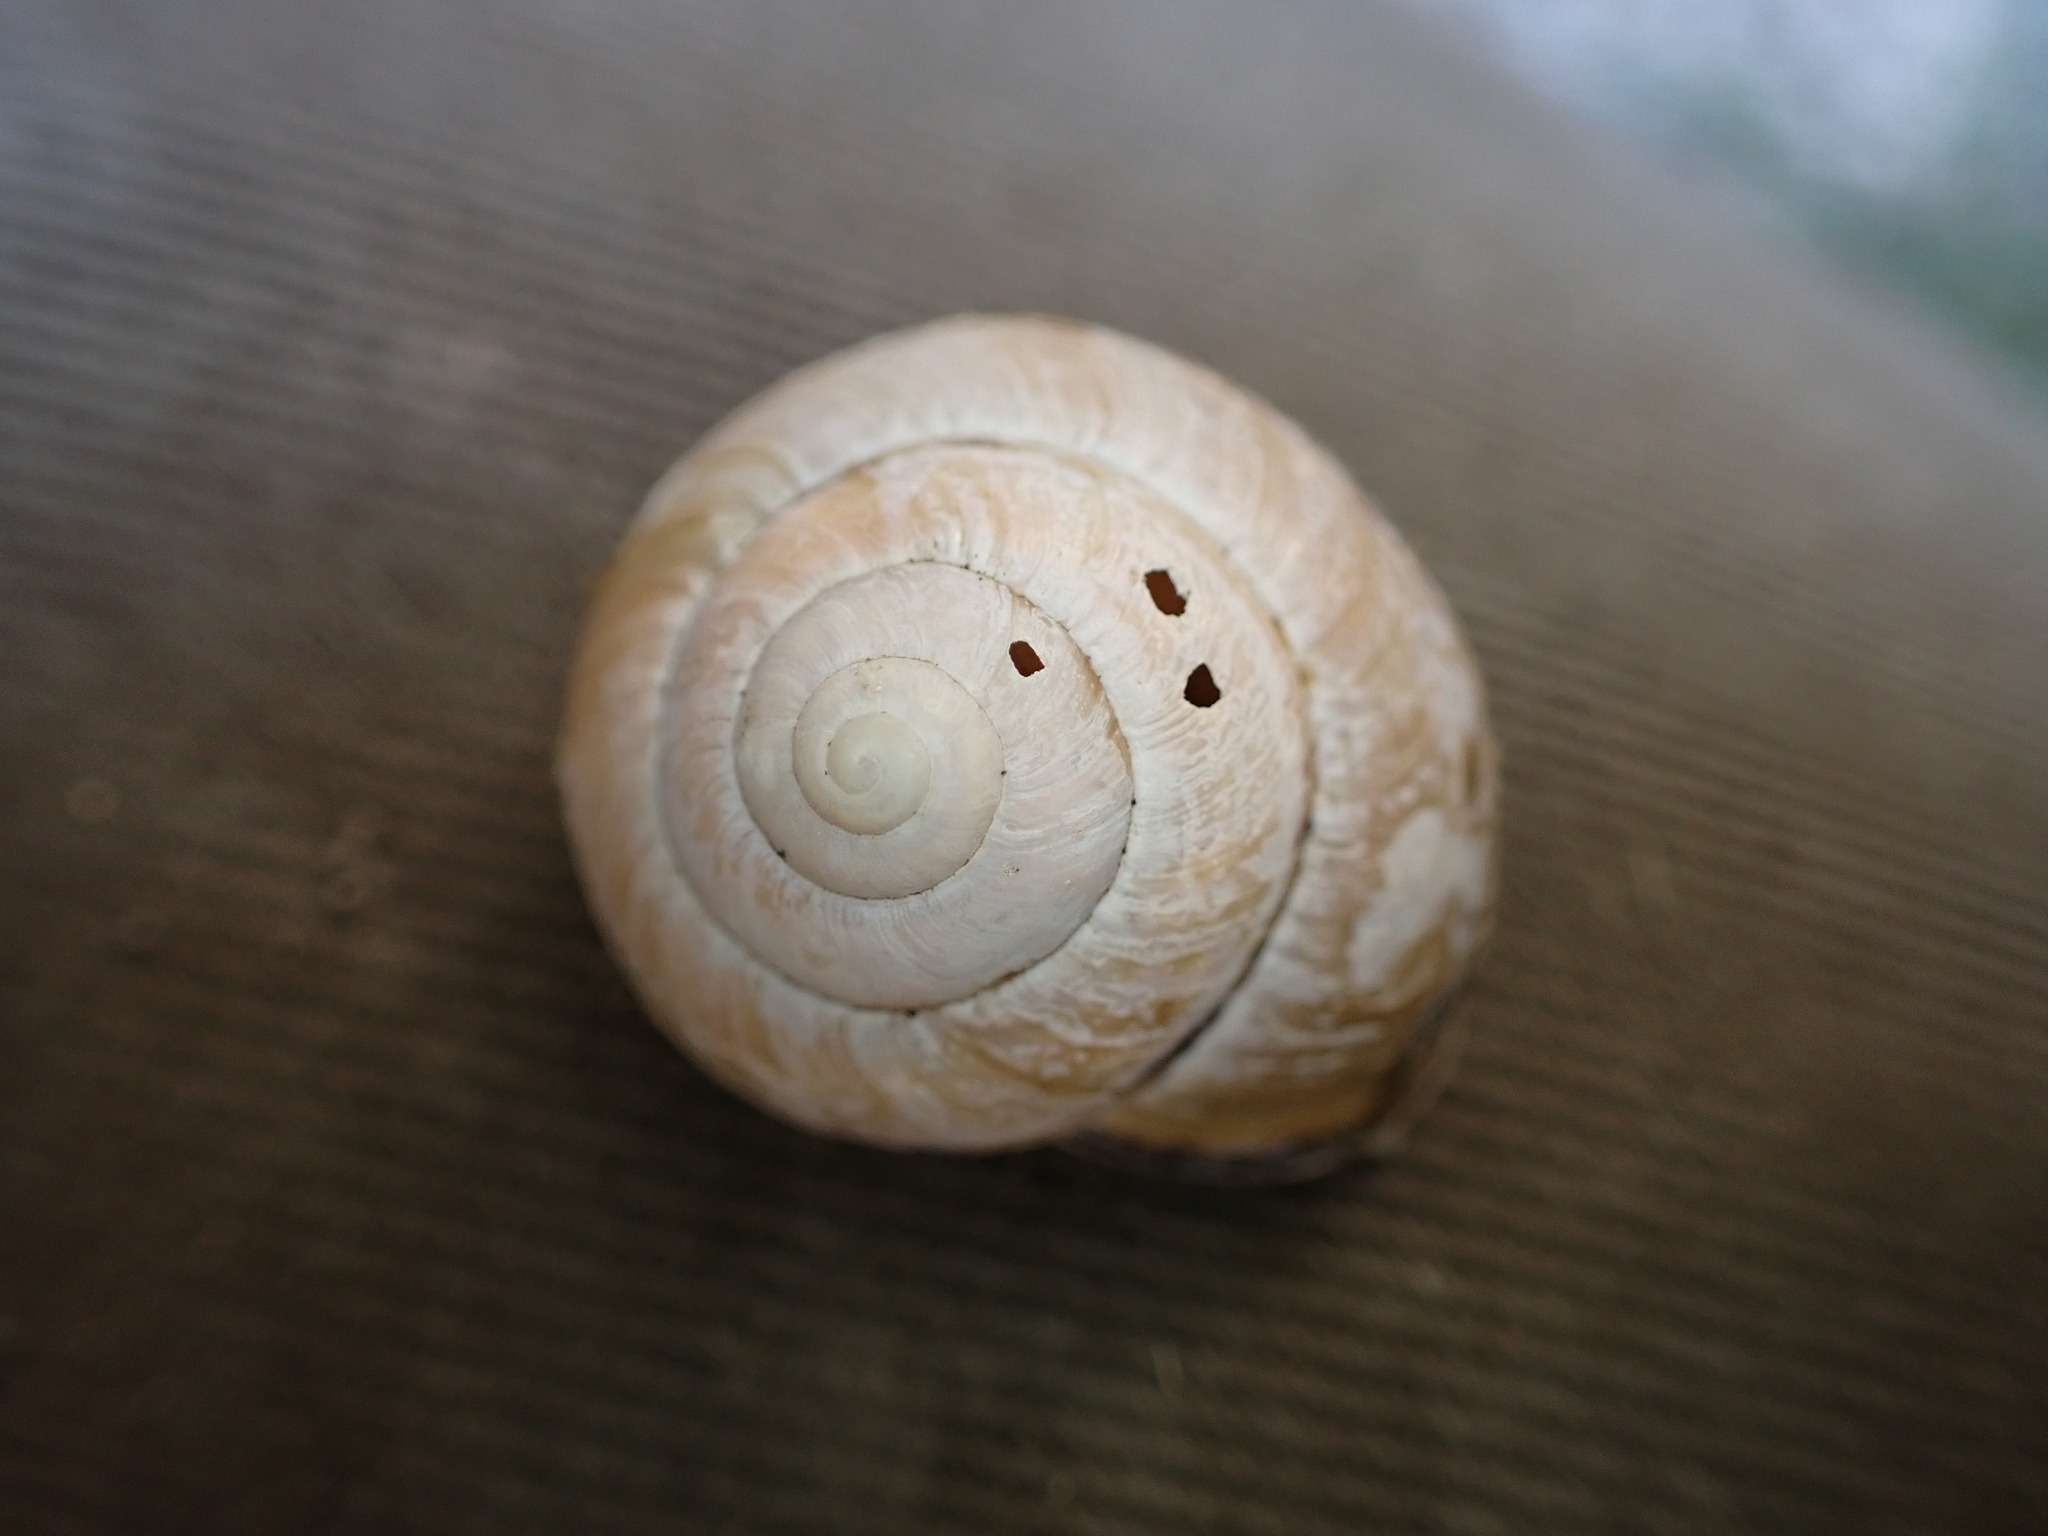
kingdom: Animalia
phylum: Mollusca
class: Gastropoda
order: Stylommatophora
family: Helicidae
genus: Cepaea
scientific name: Cepaea nemoralis
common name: Grovesnail
